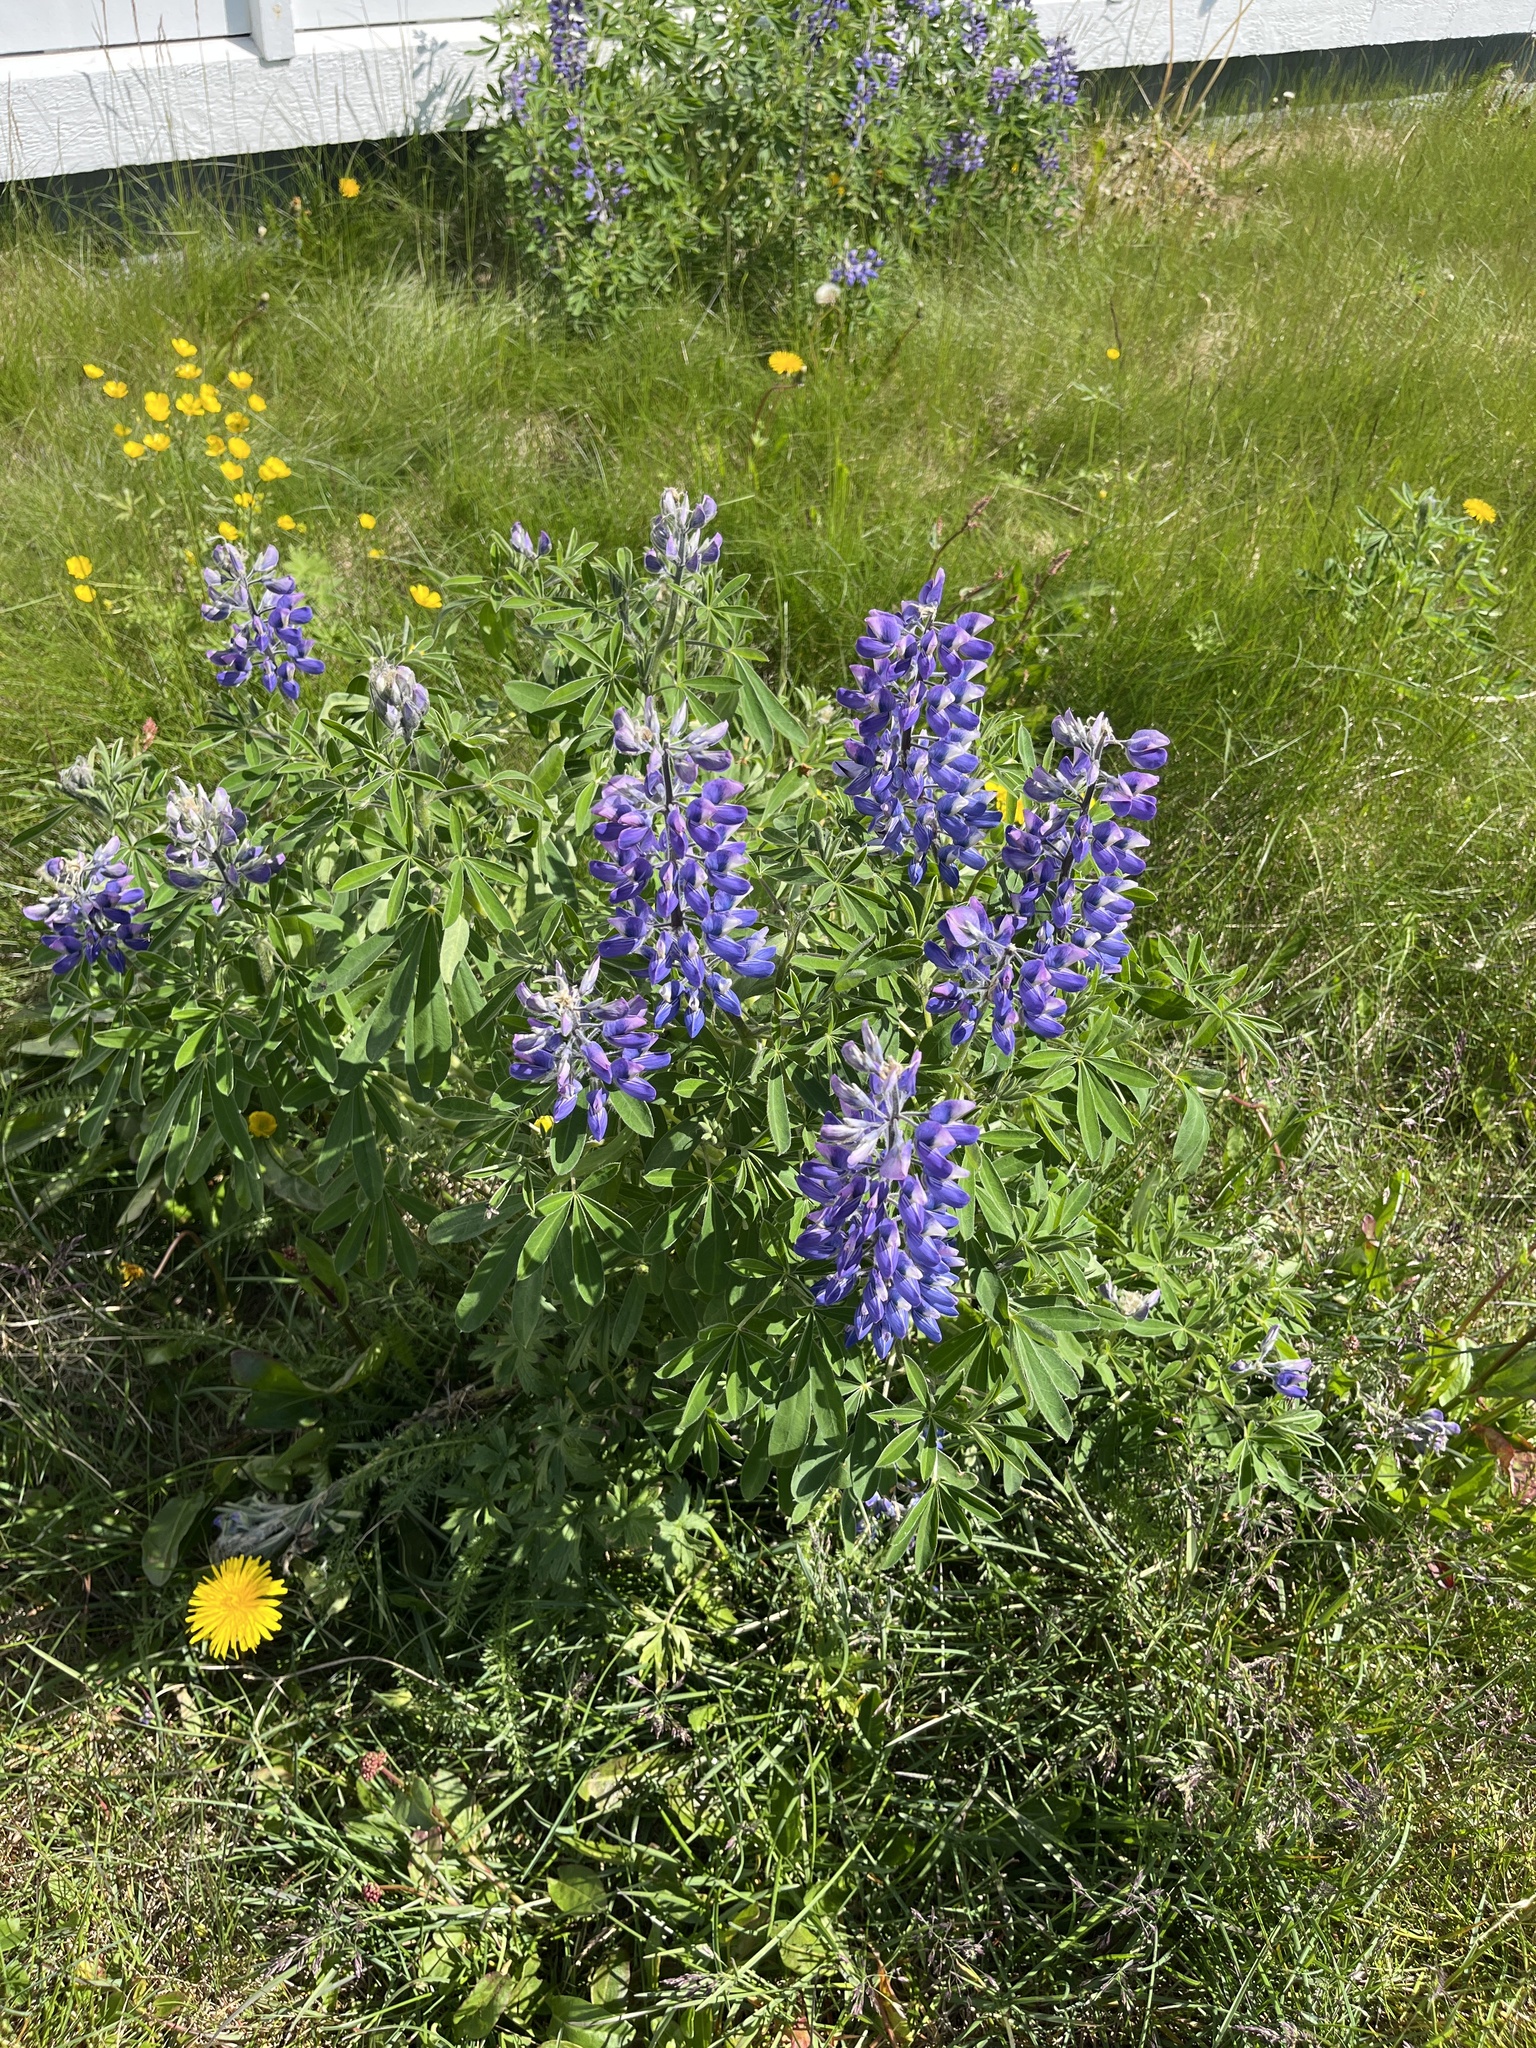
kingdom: Plantae
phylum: Tracheophyta
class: Magnoliopsida
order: Fabales
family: Fabaceae
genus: Lupinus
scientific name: Lupinus nootkatensis
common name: Nootka lupine
